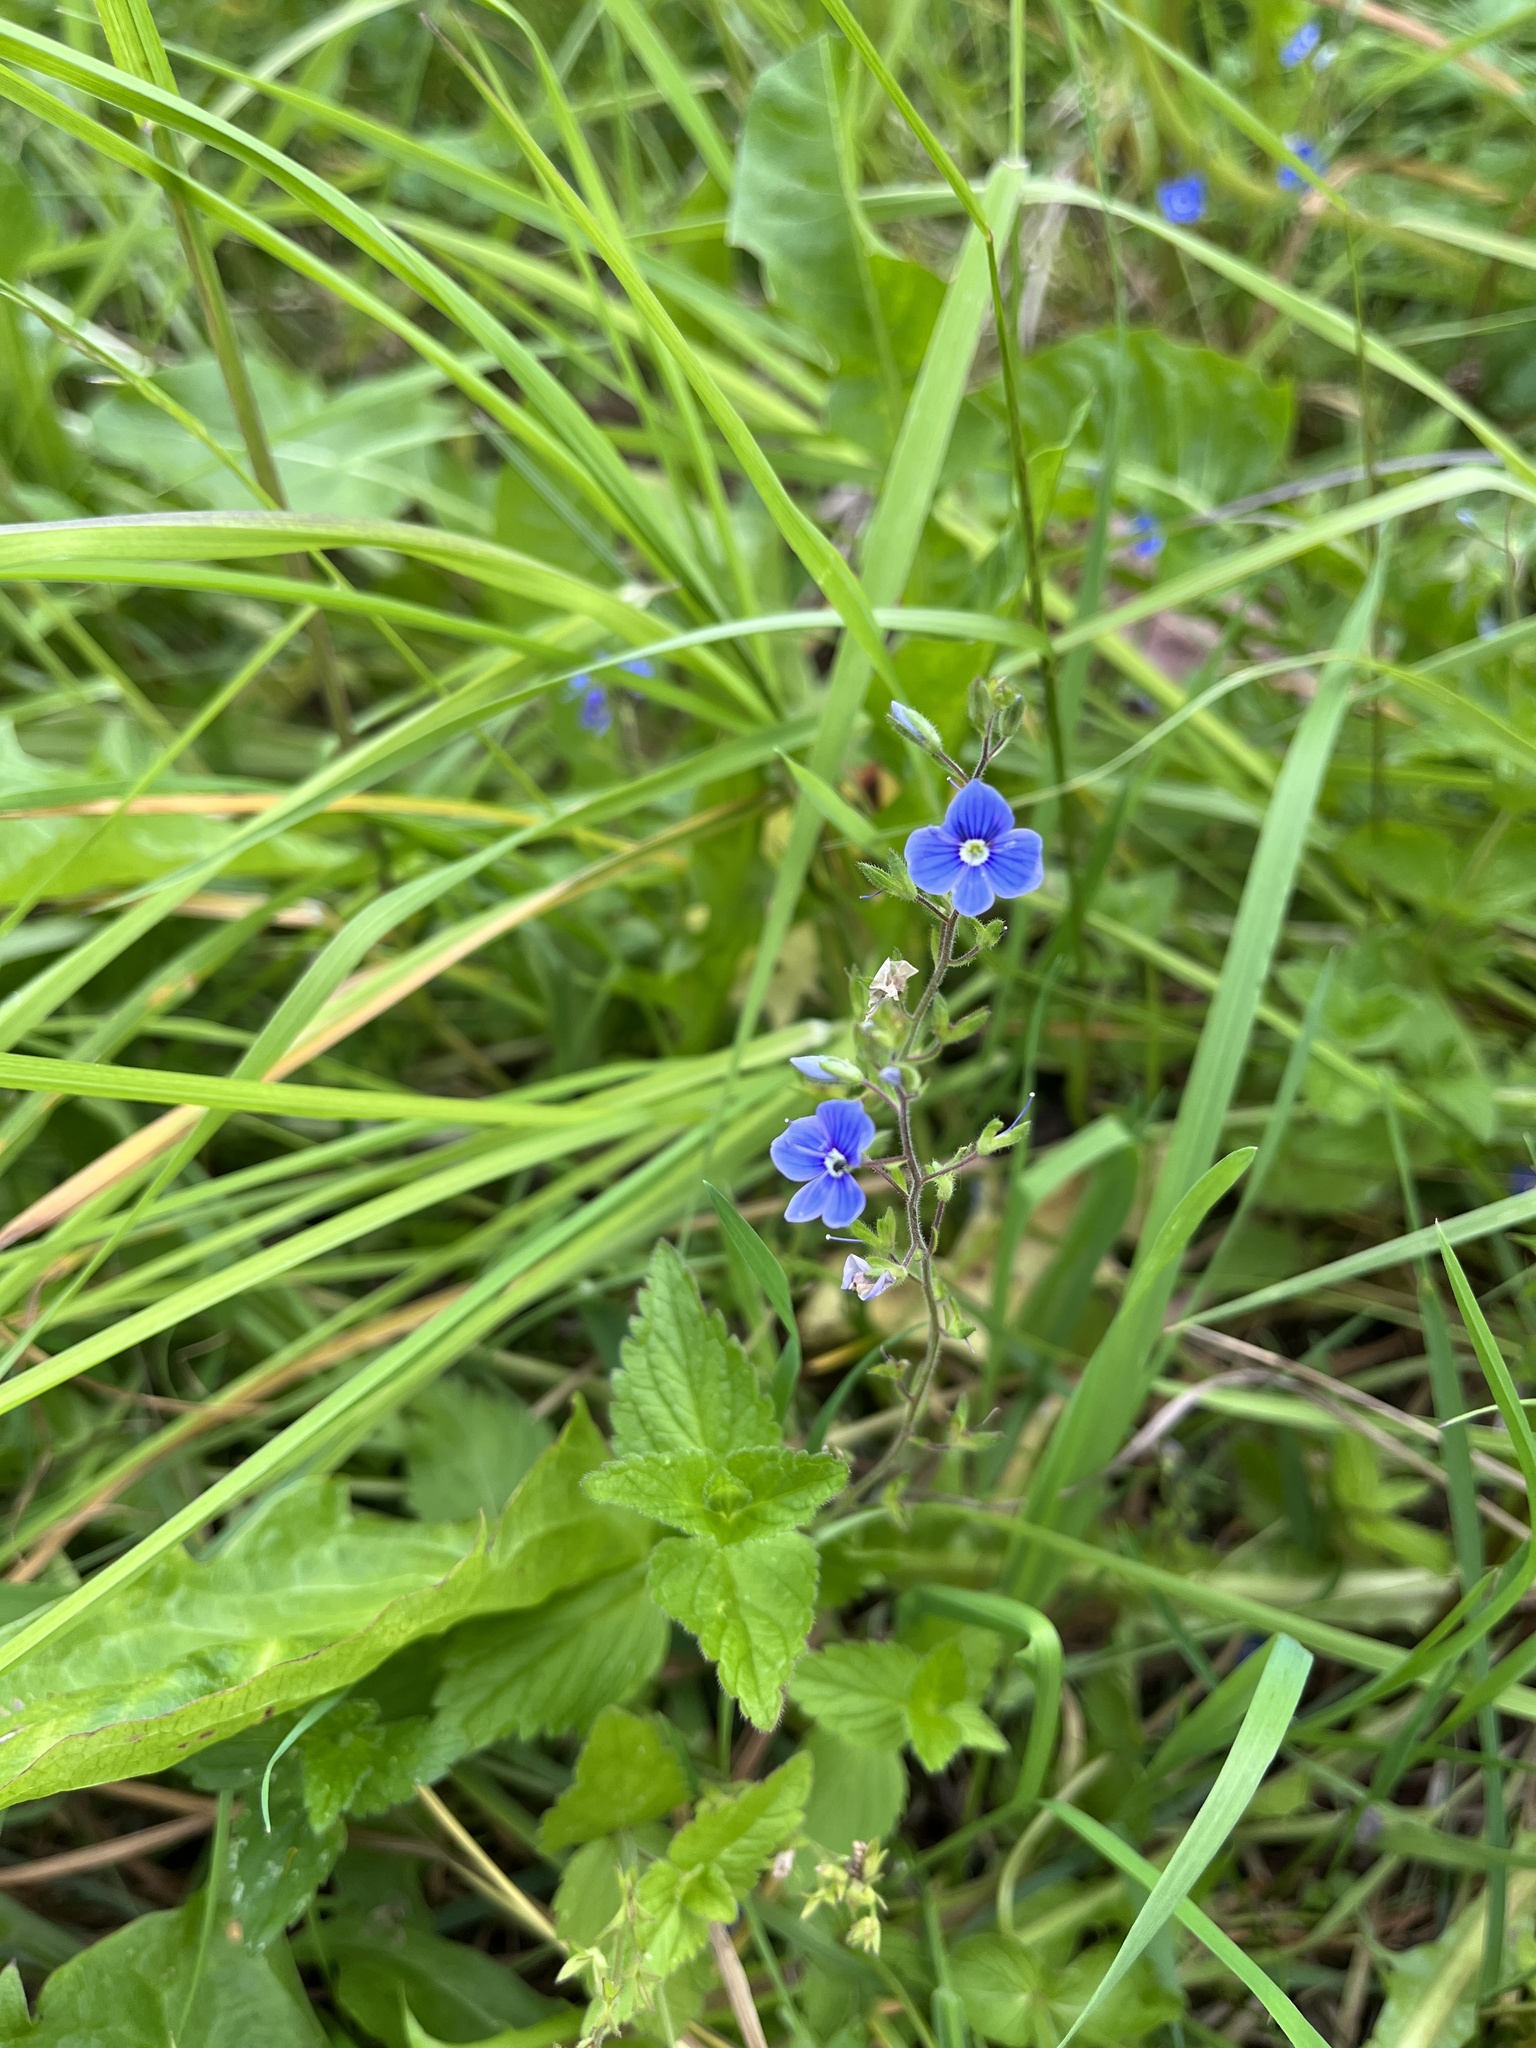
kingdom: Plantae
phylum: Tracheophyta
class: Magnoliopsida
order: Lamiales
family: Plantaginaceae
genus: Veronica
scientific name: Veronica chamaedrys
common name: Germander speedwell
